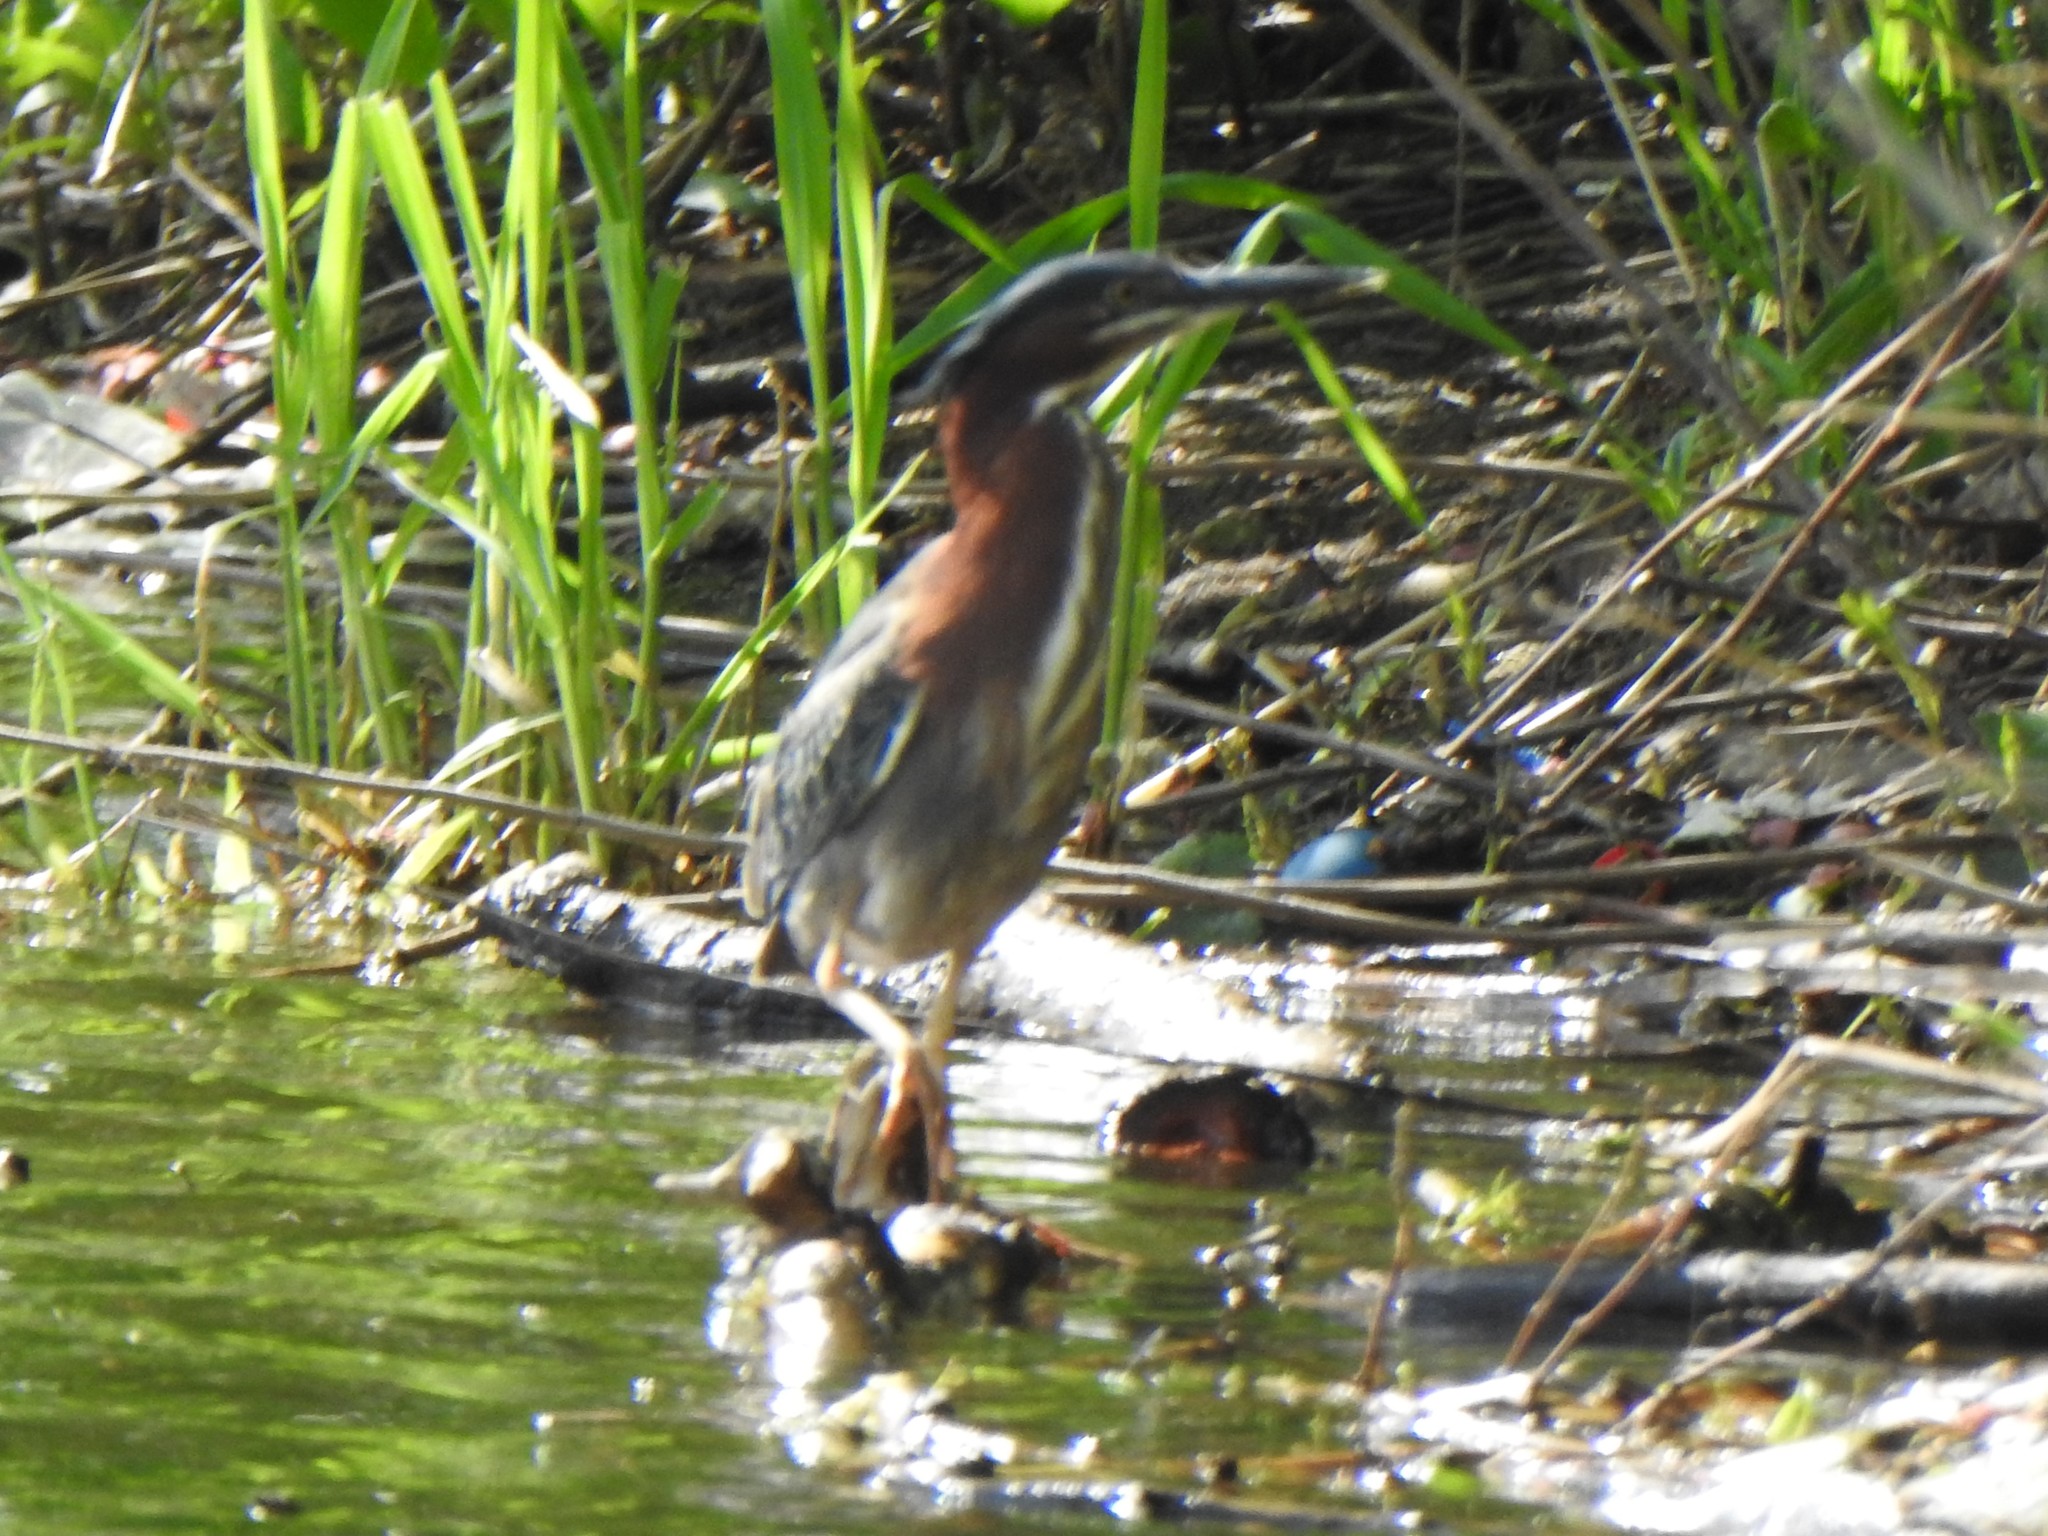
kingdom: Animalia
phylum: Chordata
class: Aves
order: Pelecaniformes
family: Ardeidae
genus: Butorides
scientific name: Butorides virescens
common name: Green heron
